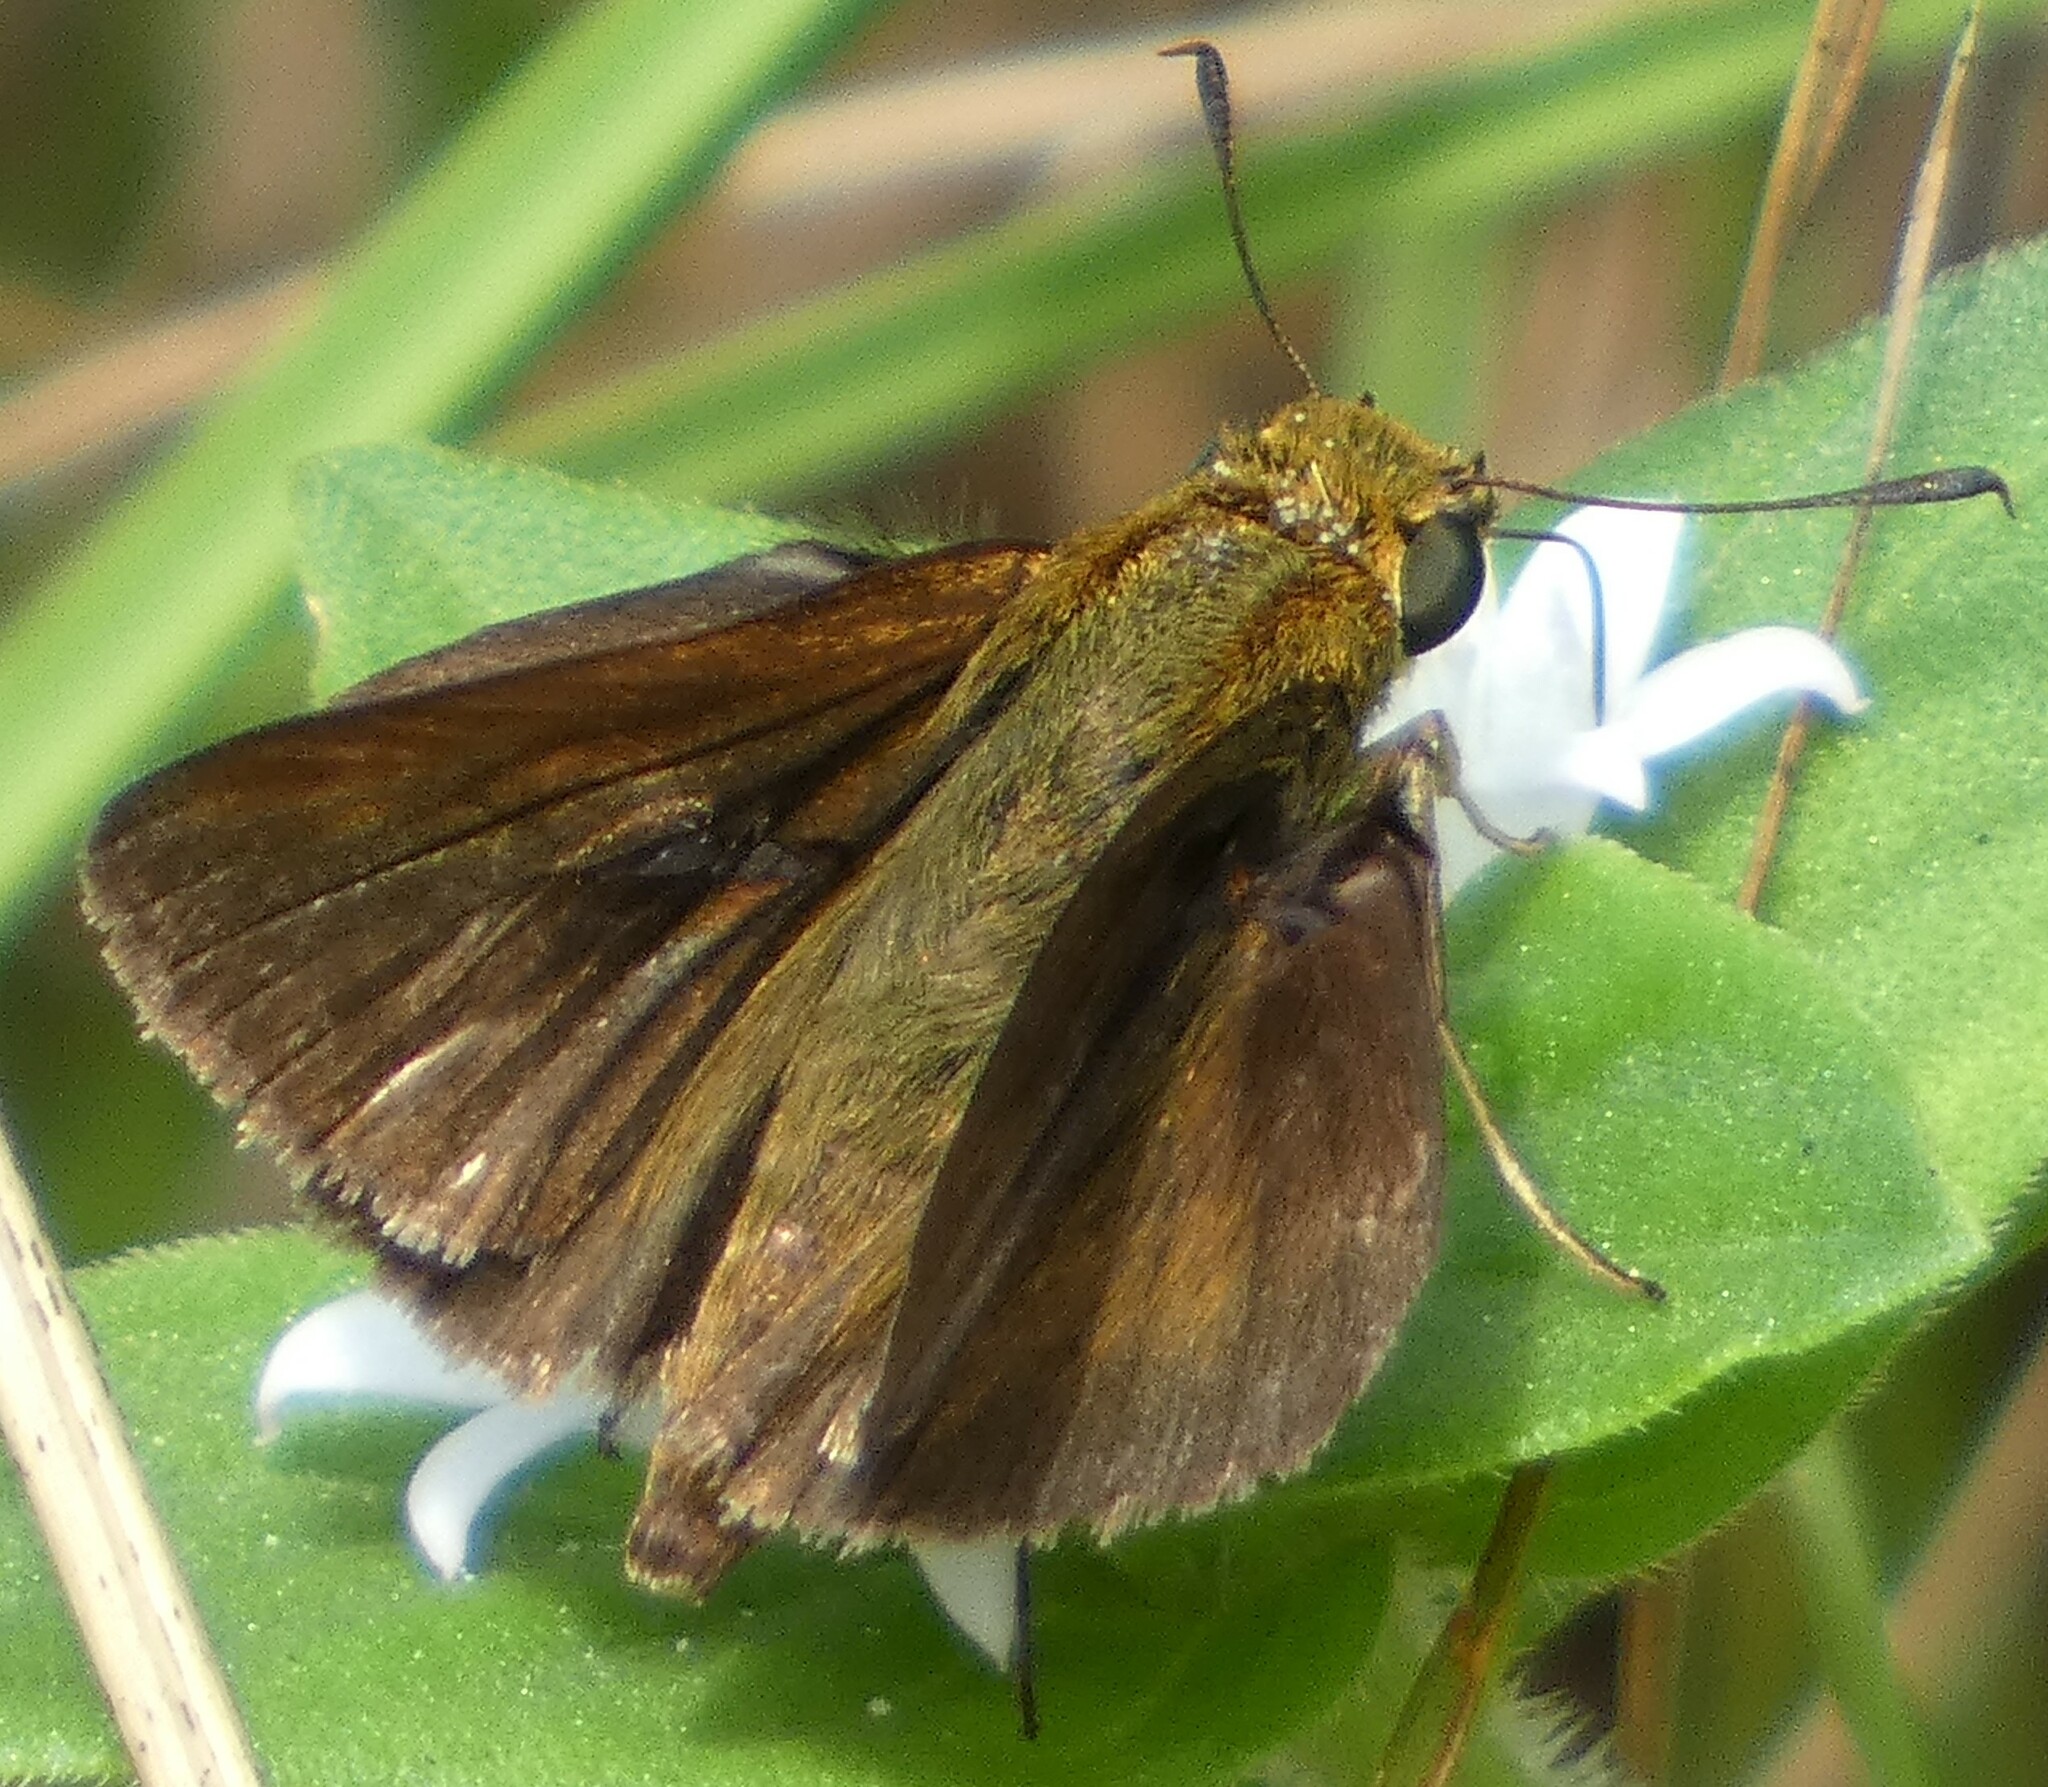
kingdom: Animalia
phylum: Arthropoda
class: Insecta
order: Lepidoptera
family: Hesperiidae
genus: Euphyes
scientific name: Euphyes vestris
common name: Dun skipper
